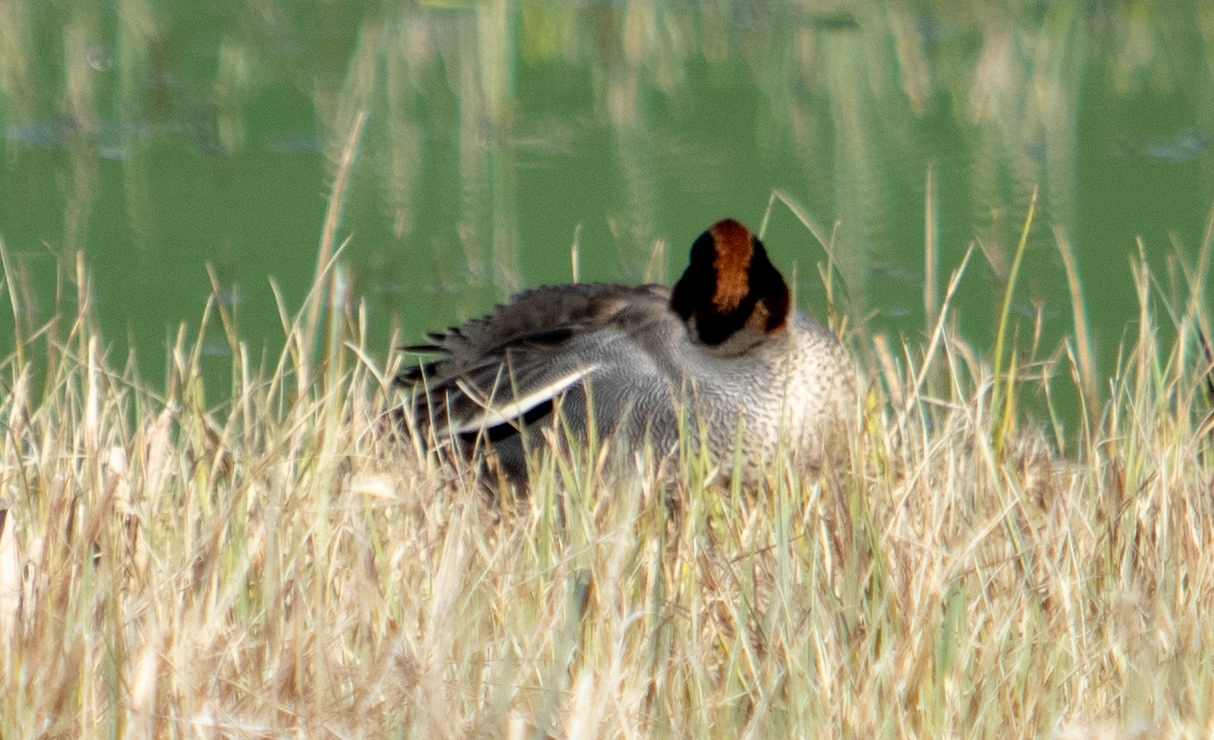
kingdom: Animalia
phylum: Chordata
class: Aves
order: Anseriformes
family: Anatidae
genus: Anas
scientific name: Anas crecca
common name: Eurasian teal
